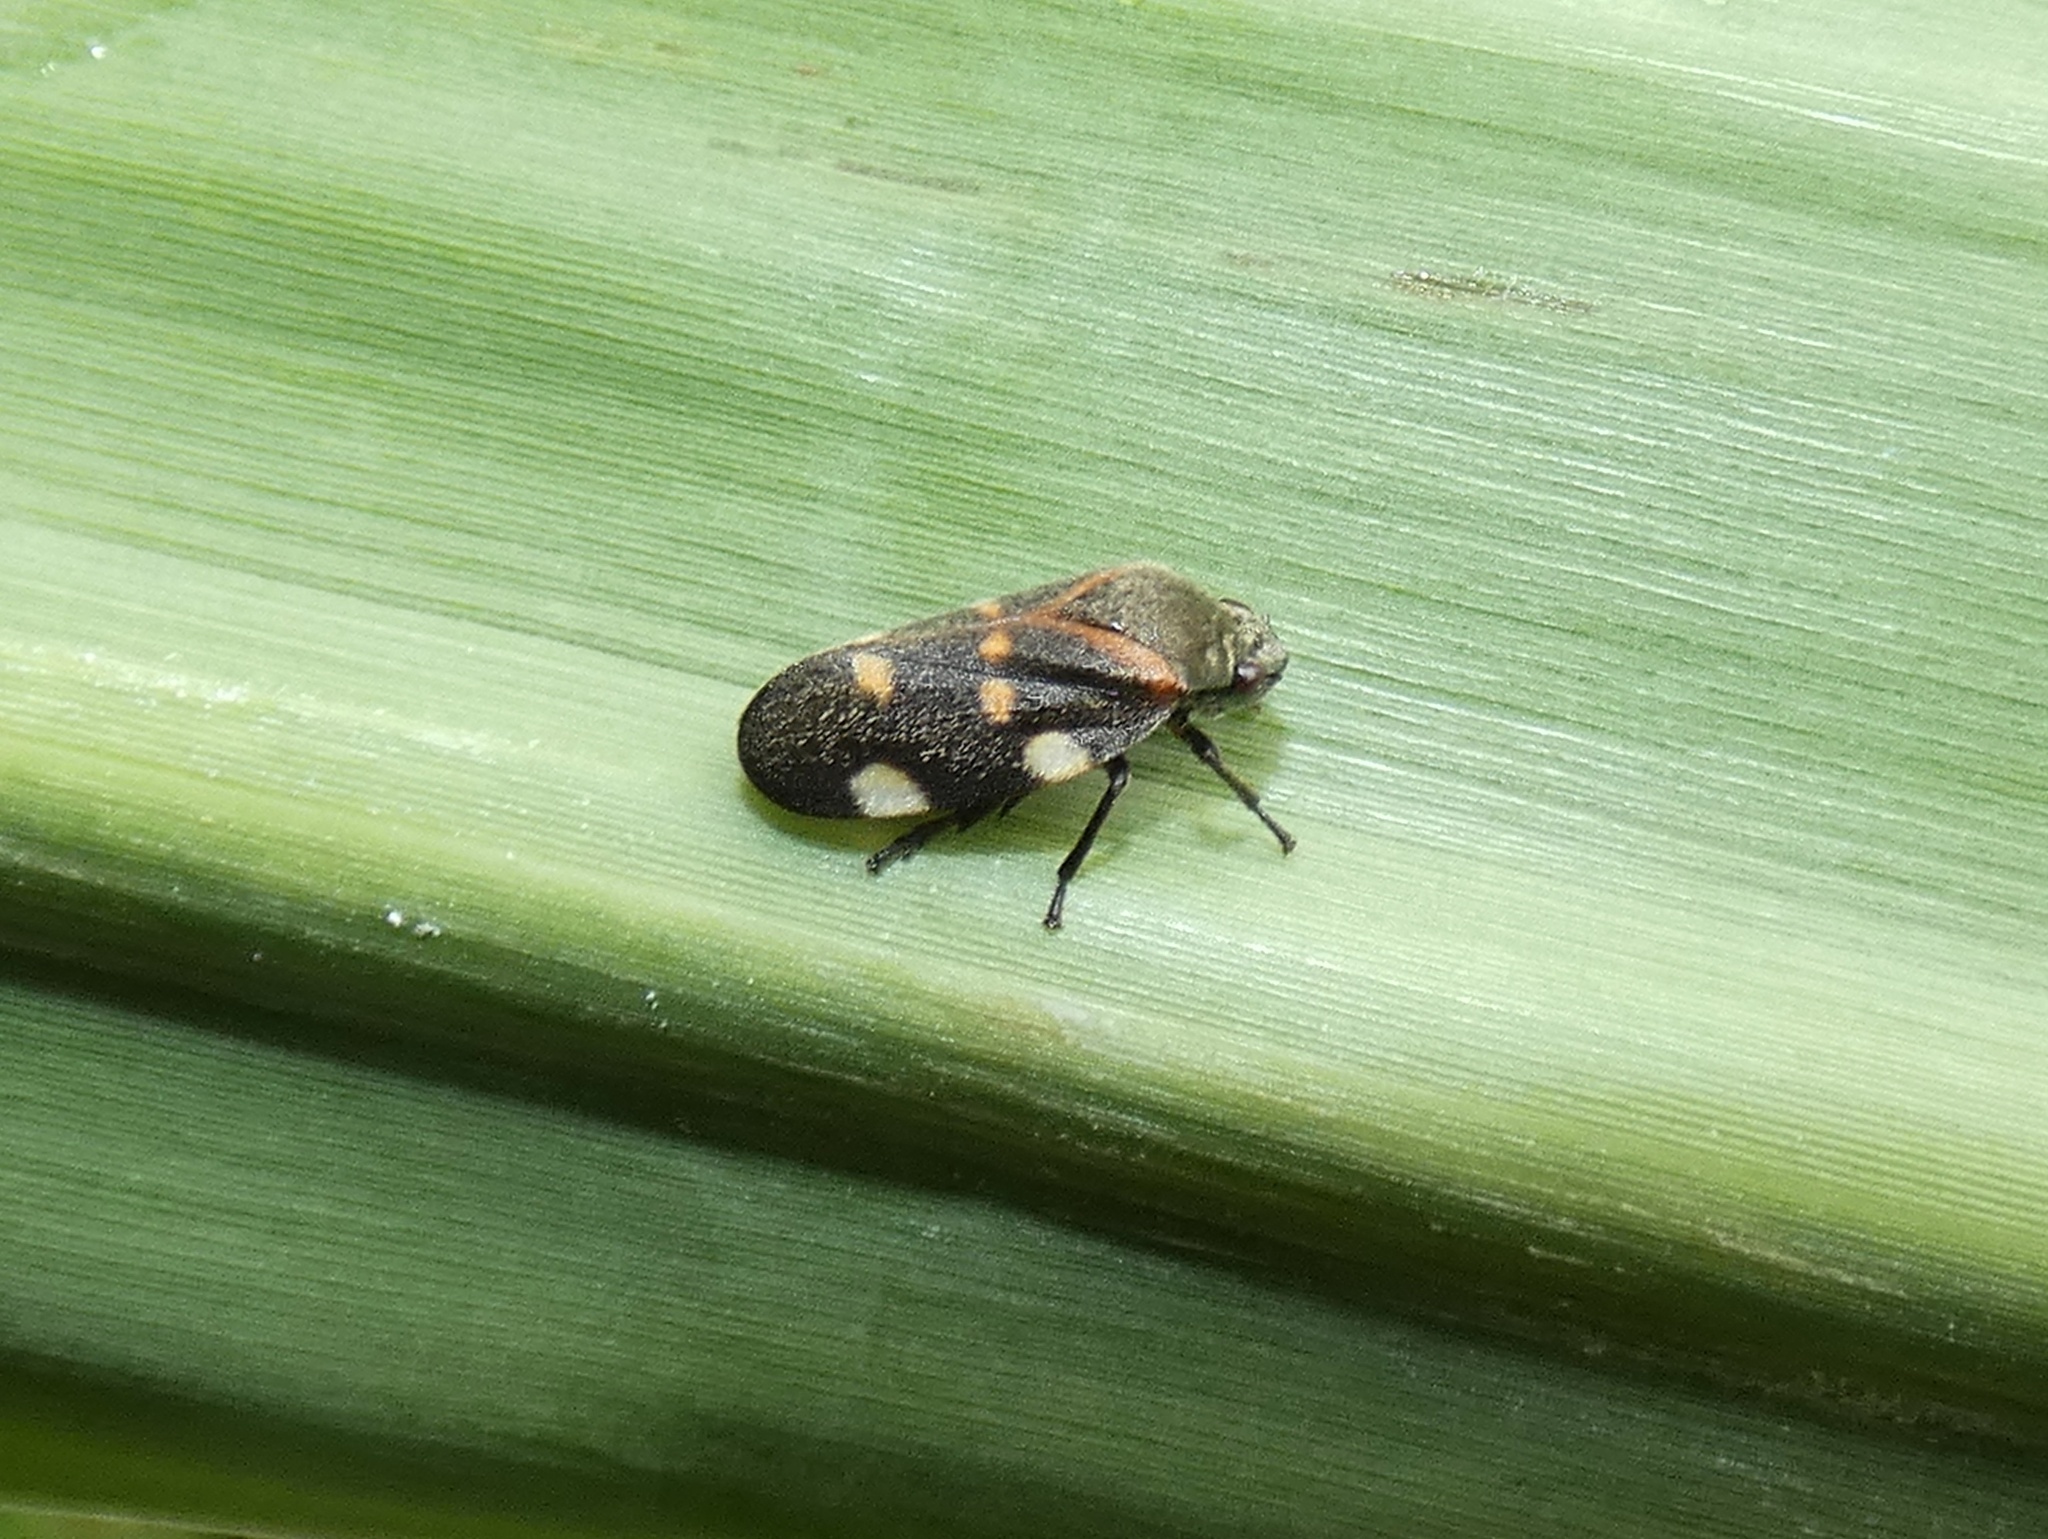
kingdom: Animalia
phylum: Arthropoda
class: Insecta
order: Hemiptera
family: Cercopidae
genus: Aeneolamia
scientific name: Aeneolamia lepidior
